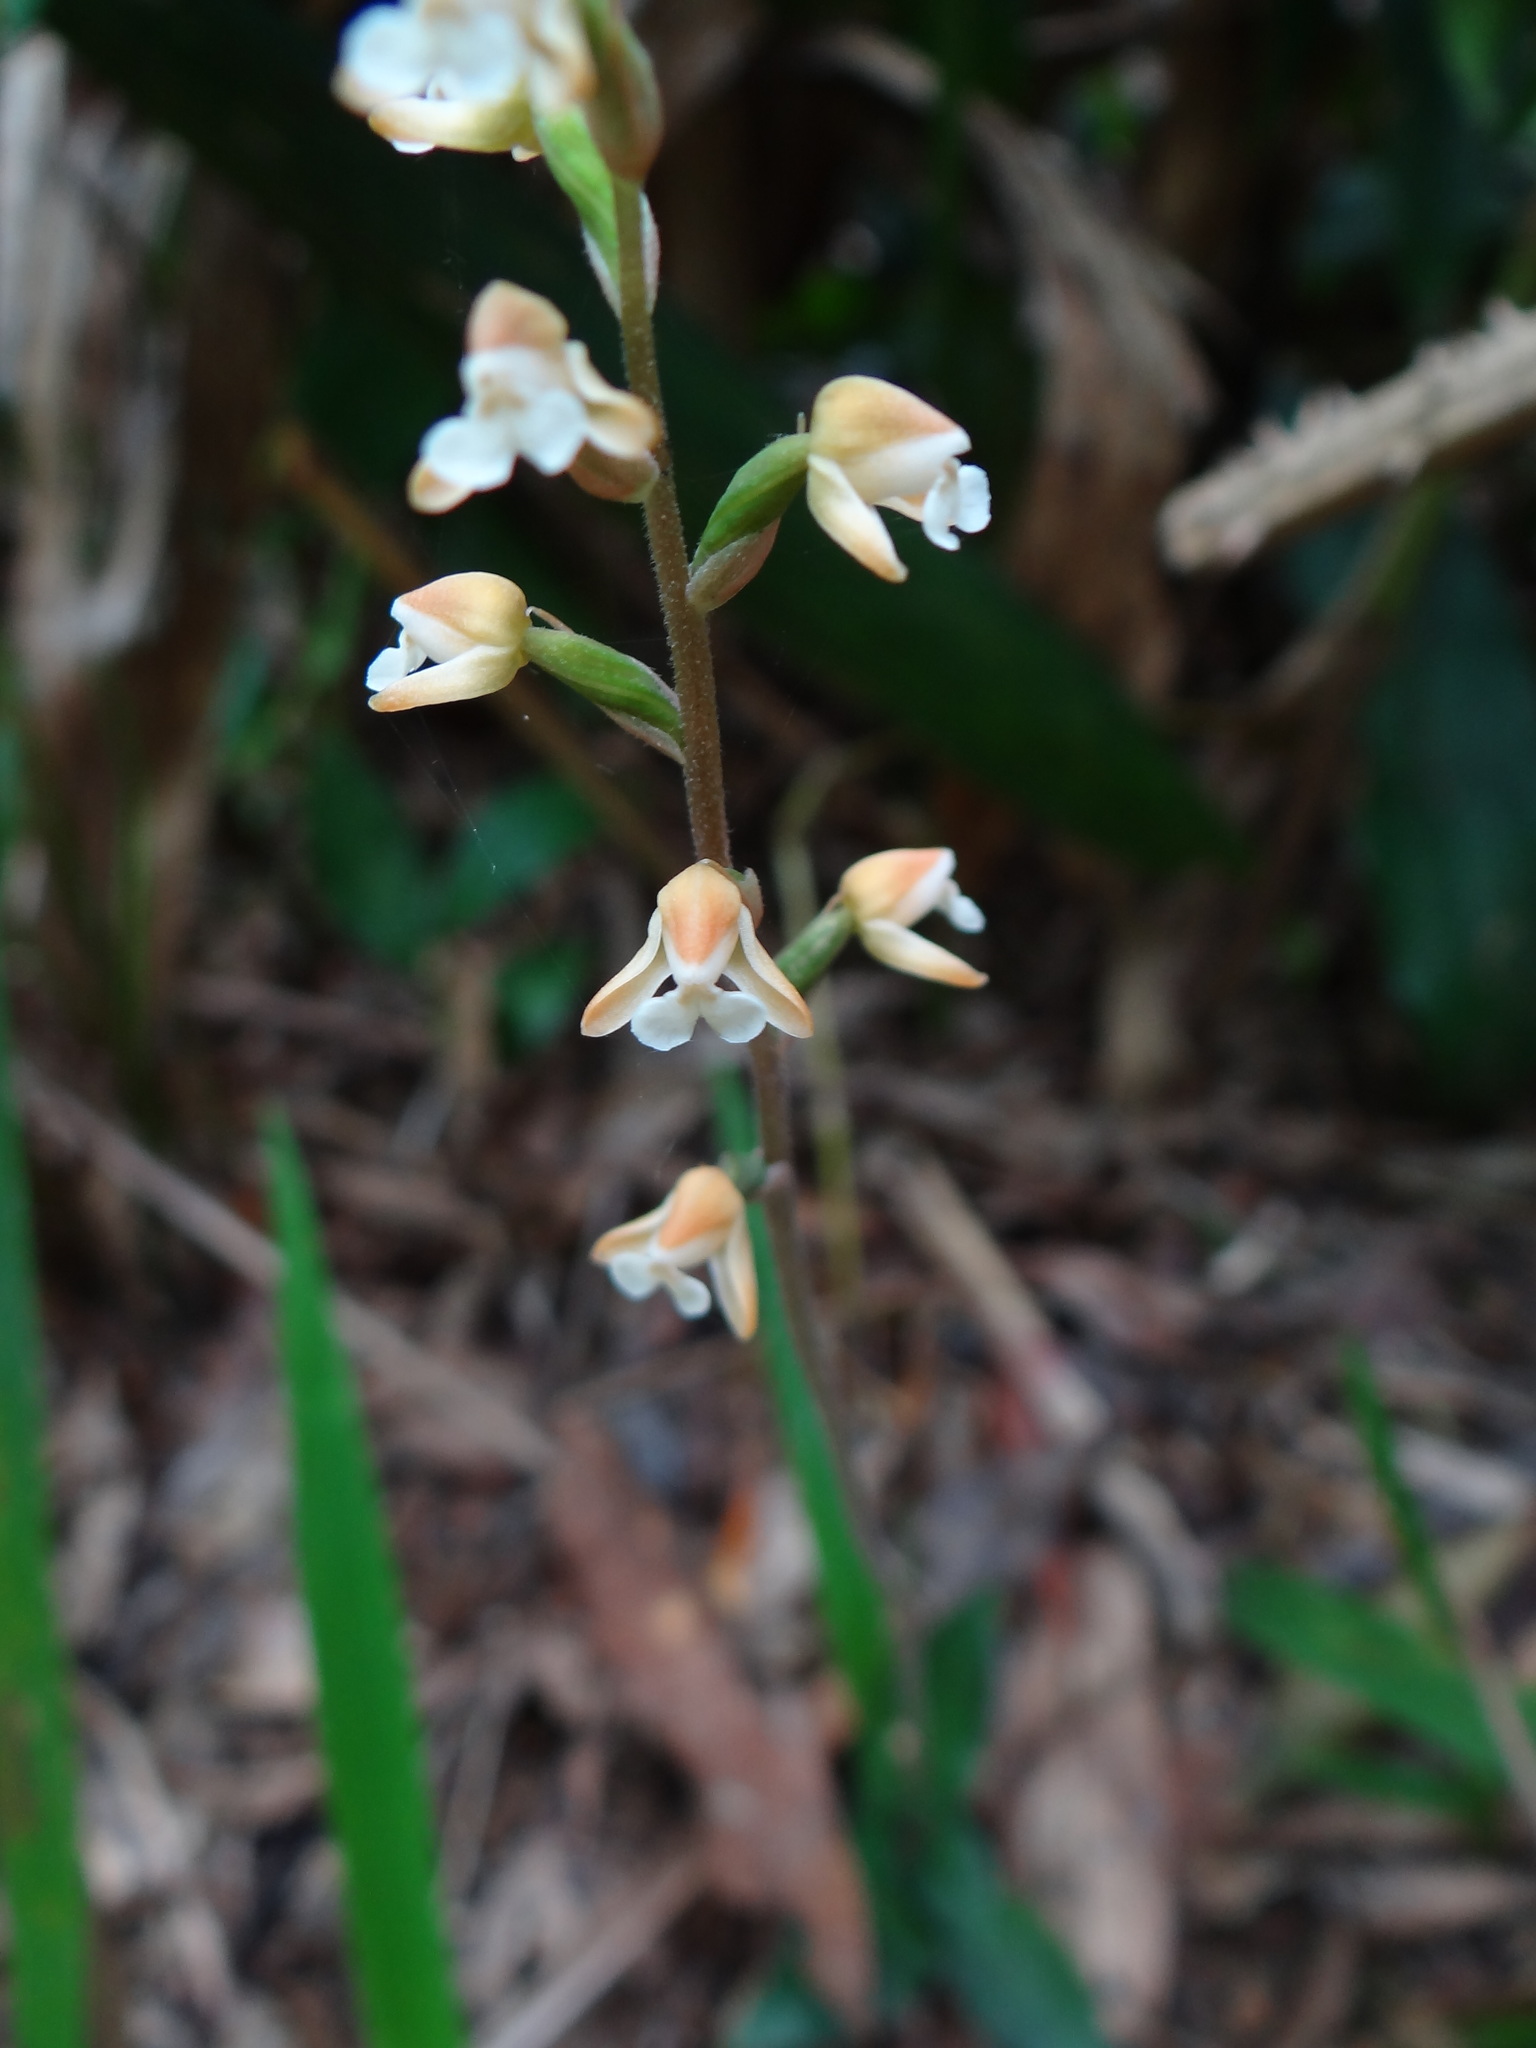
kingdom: Plantae
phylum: Tracheophyta
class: Liliopsida
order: Asparagales
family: Orchidaceae
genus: Zeuxine
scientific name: Zeuxine nervosa
